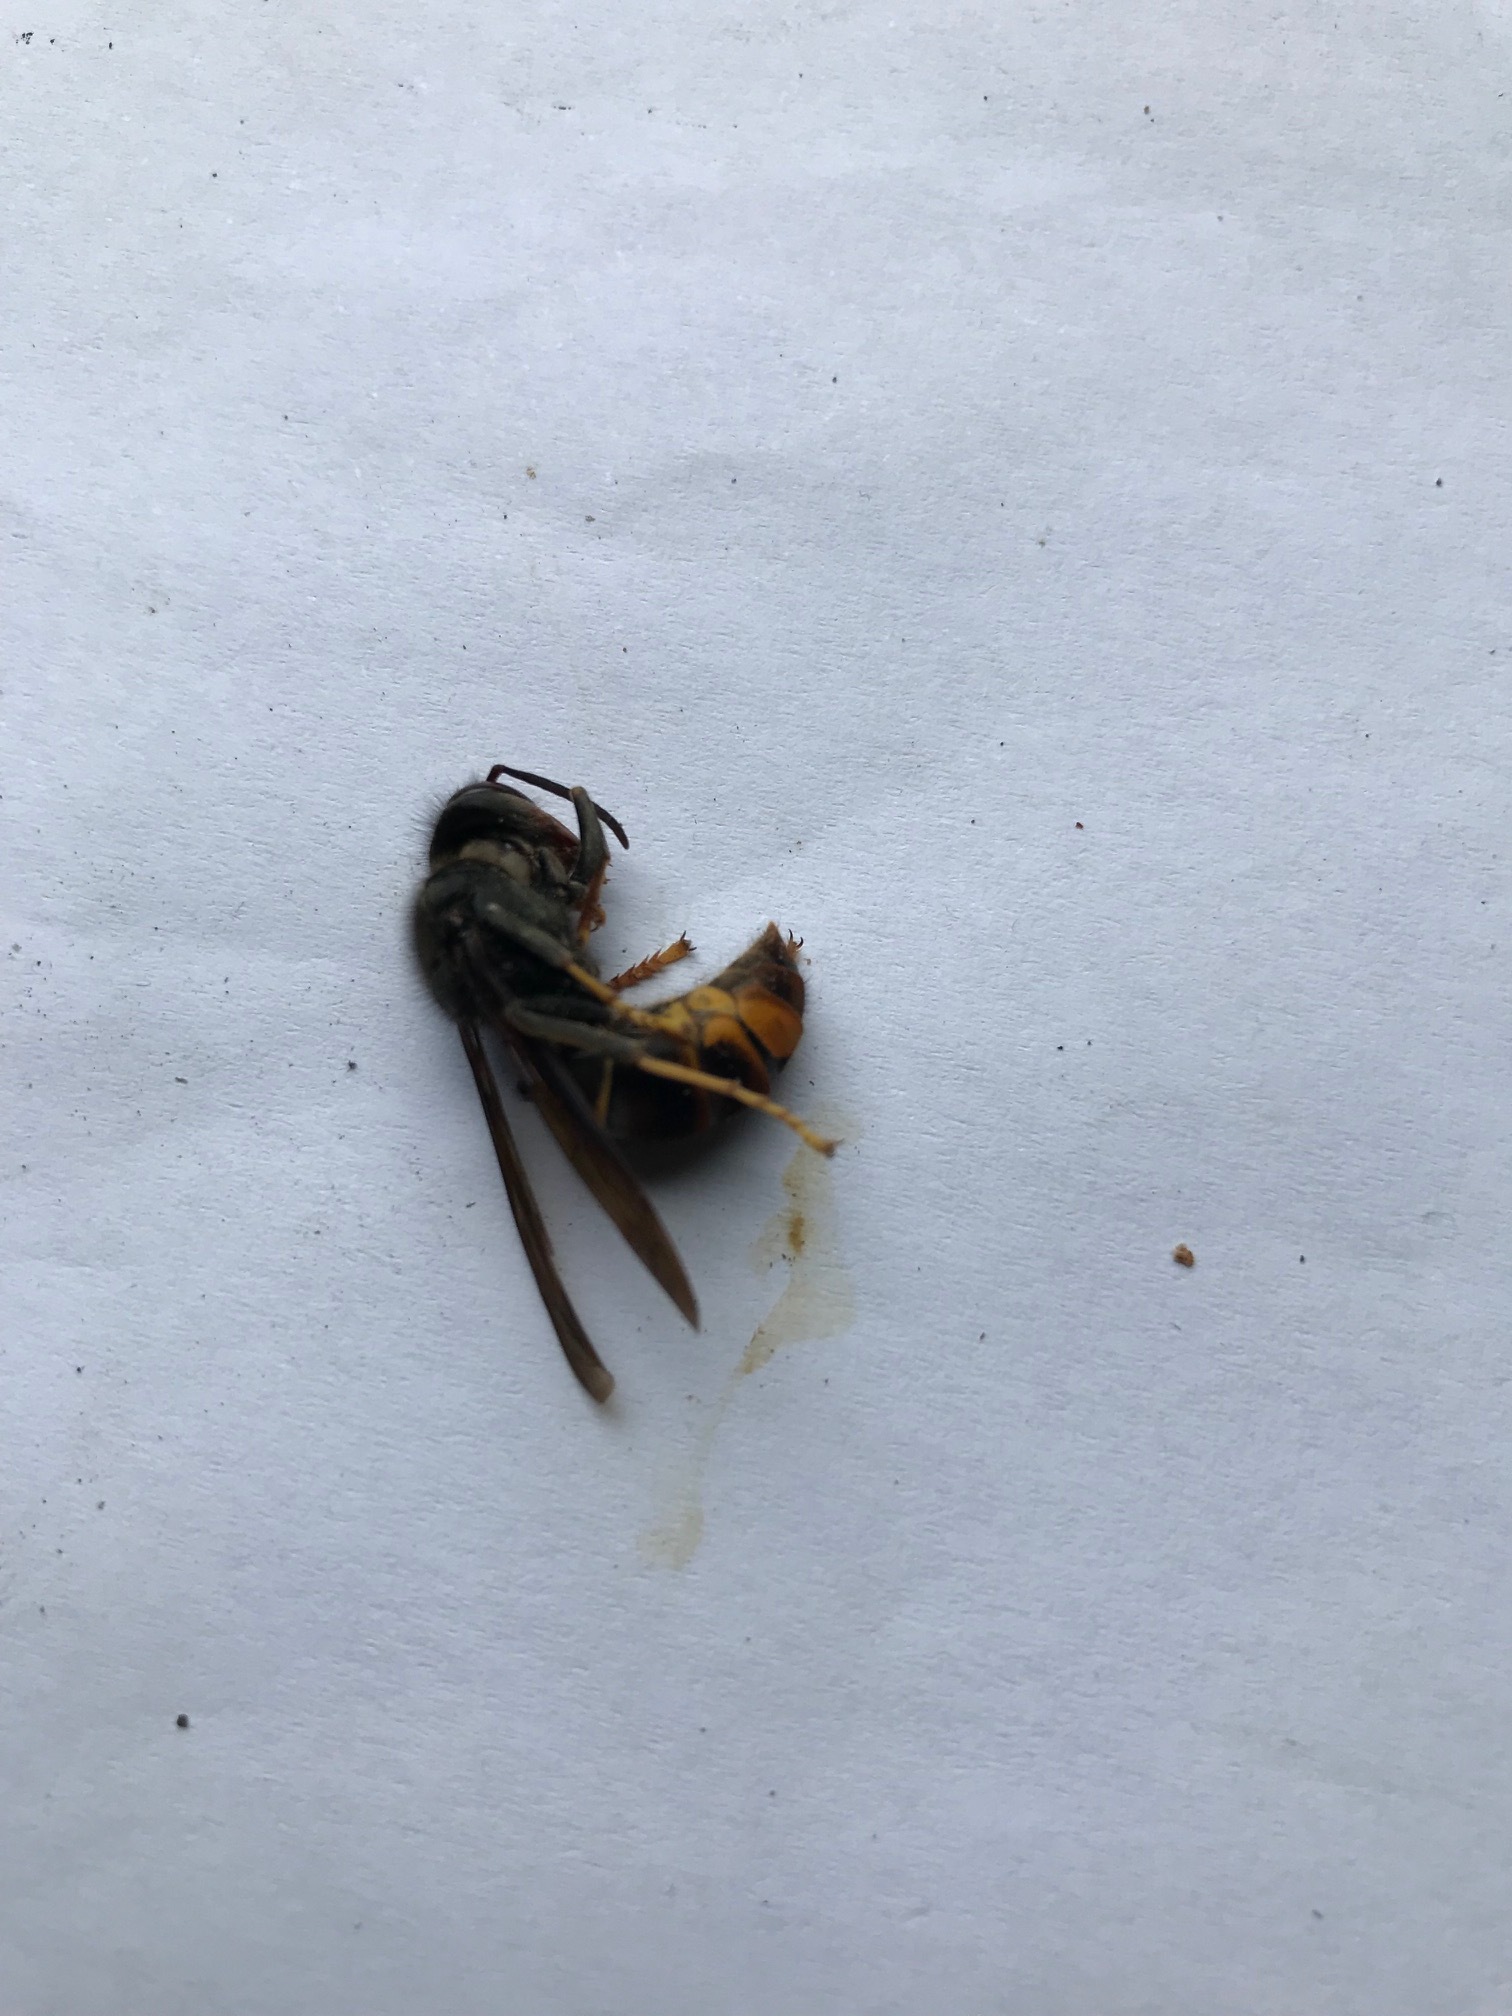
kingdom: Animalia
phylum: Arthropoda
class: Insecta
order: Hymenoptera
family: Vespidae
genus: Vespa
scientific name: Vespa velutina
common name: Asian hornet
